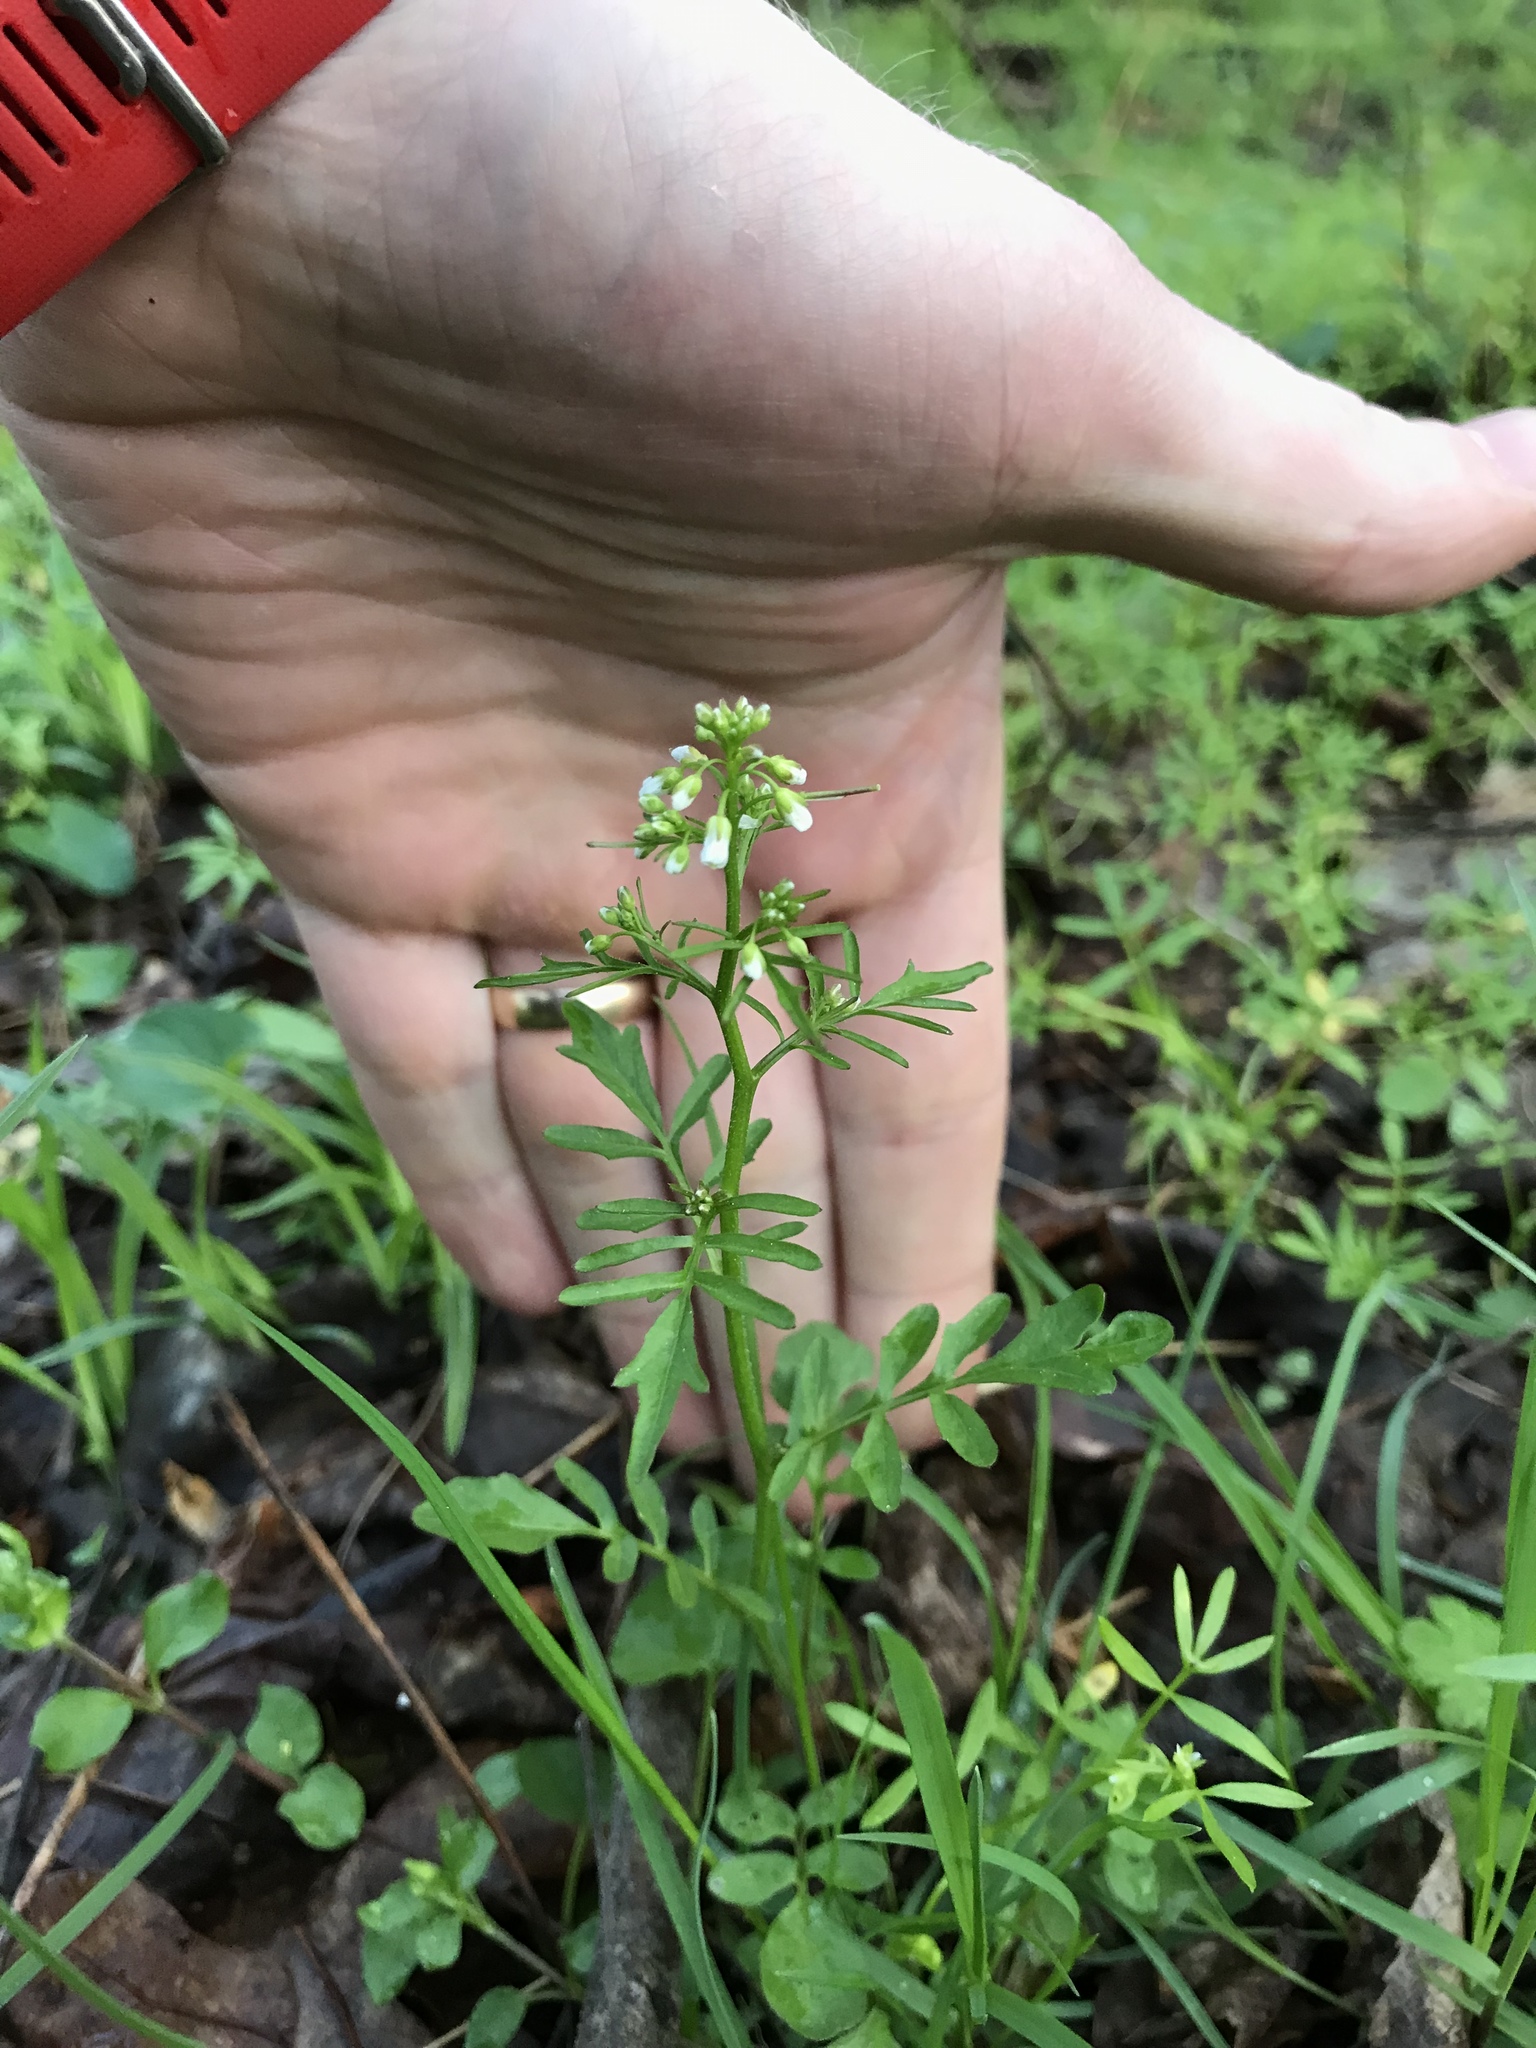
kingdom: Plantae
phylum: Tracheophyta
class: Magnoliopsida
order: Brassicales
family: Brassicaceae
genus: Cardamine
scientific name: Cardamine pensylvanica
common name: Pennsylvania bittercress
